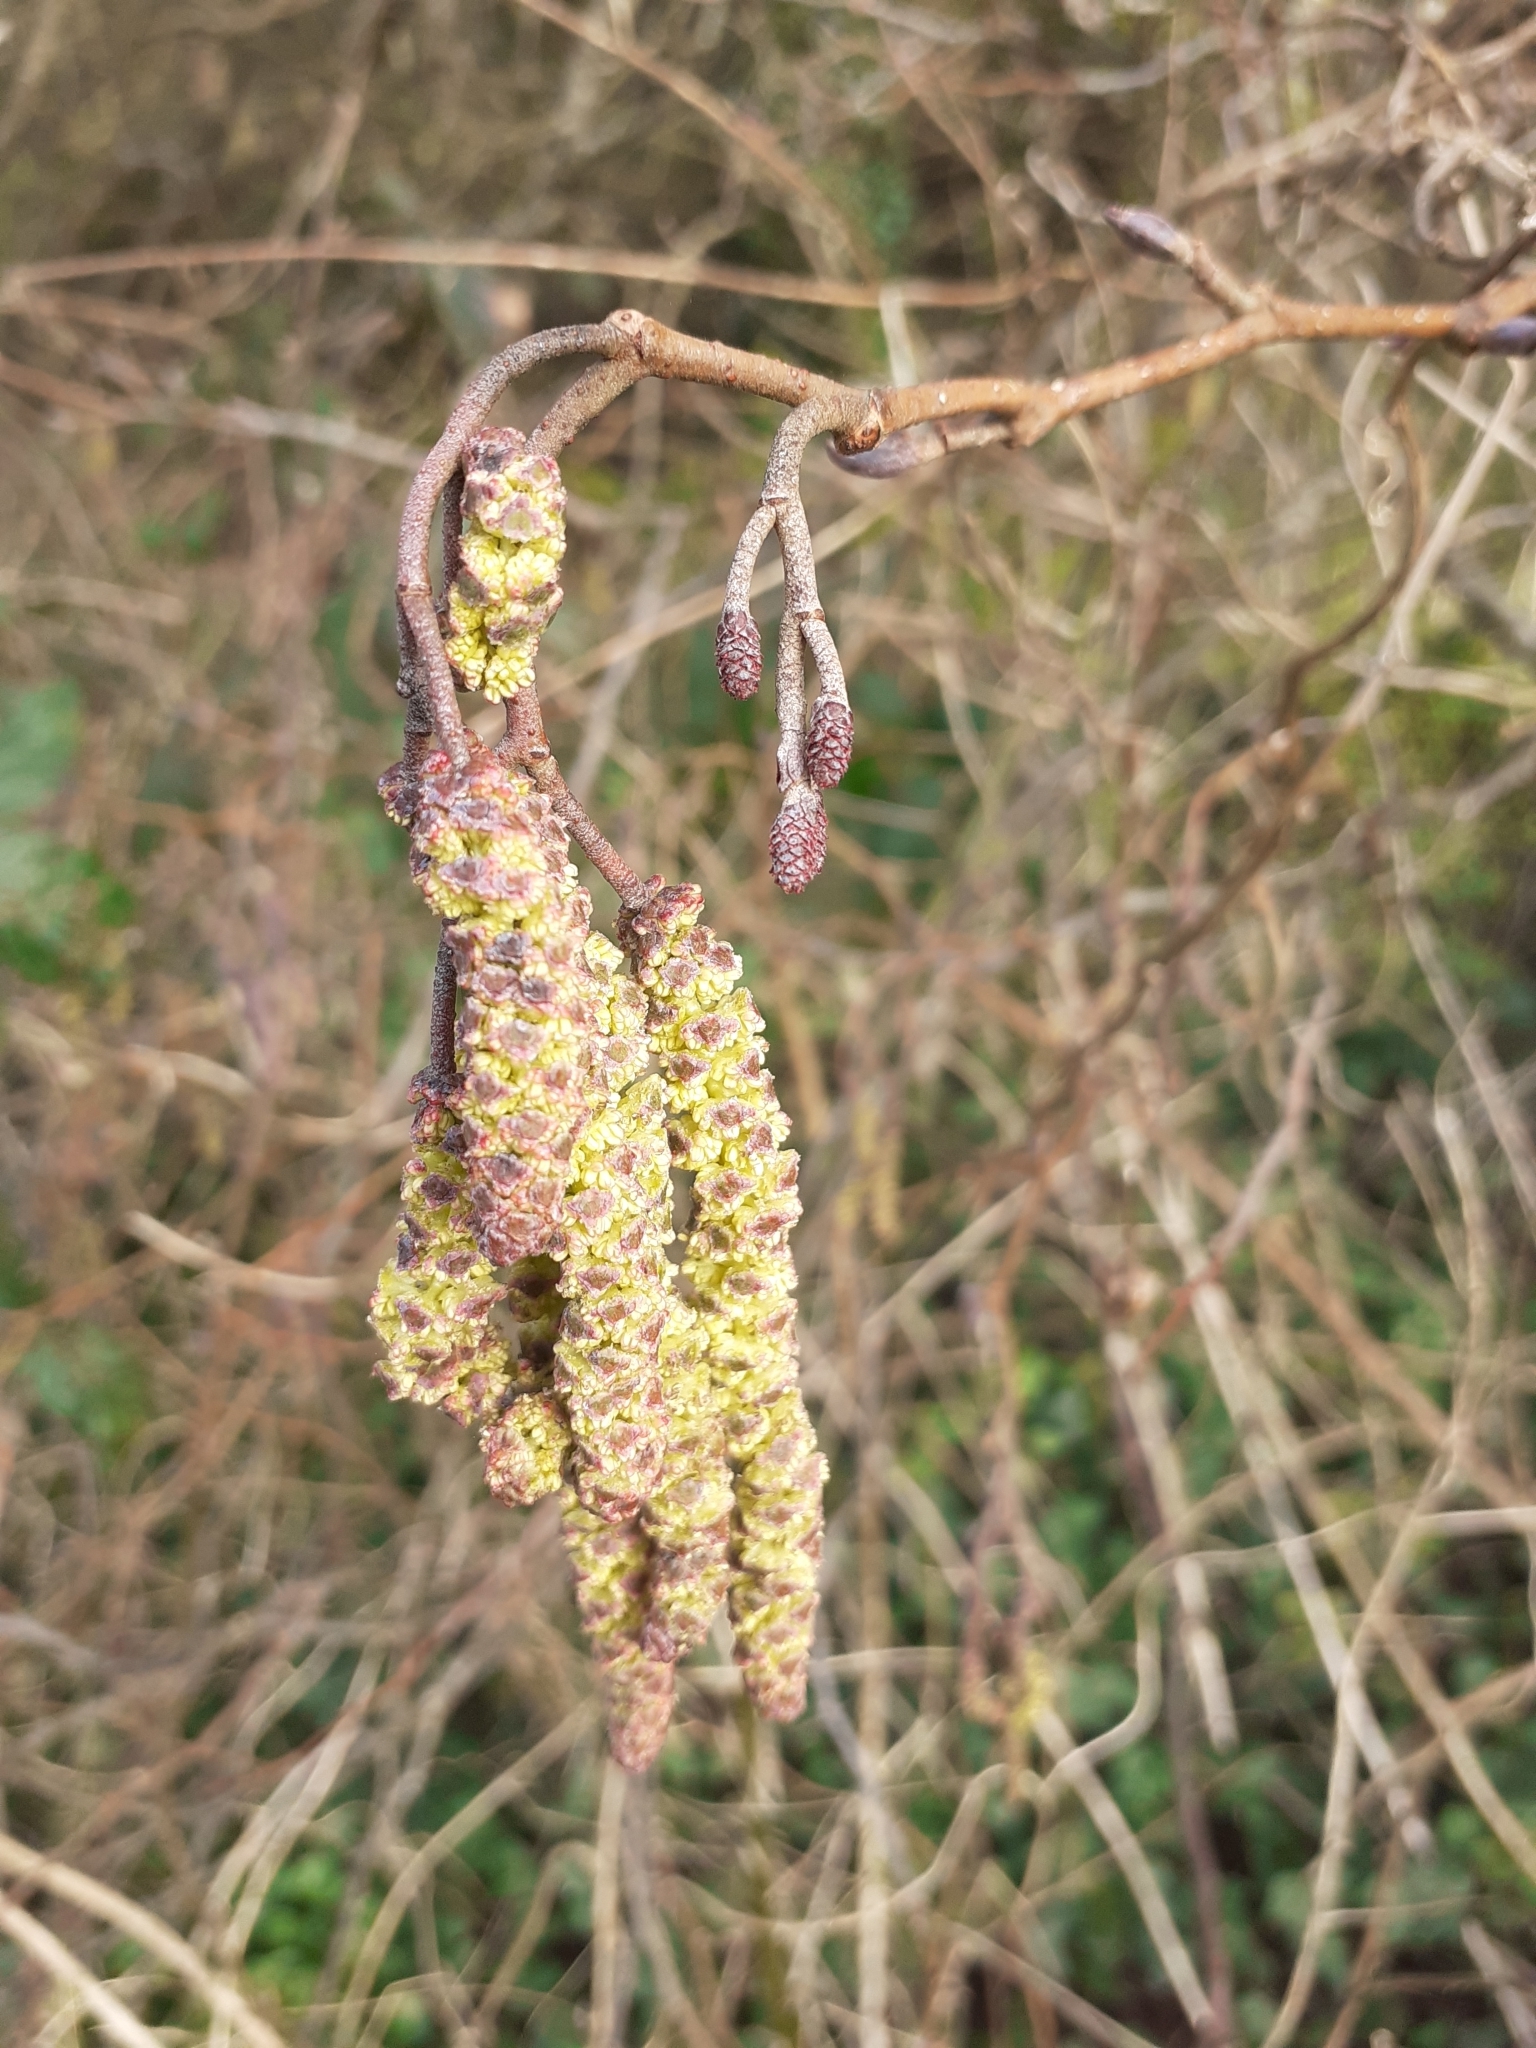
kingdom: Plantae
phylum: Tracheophyta
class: Magnoliopsida
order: Fagales
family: Betulaceae
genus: Alnus
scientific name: Alnus glutinosa
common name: Black alder
